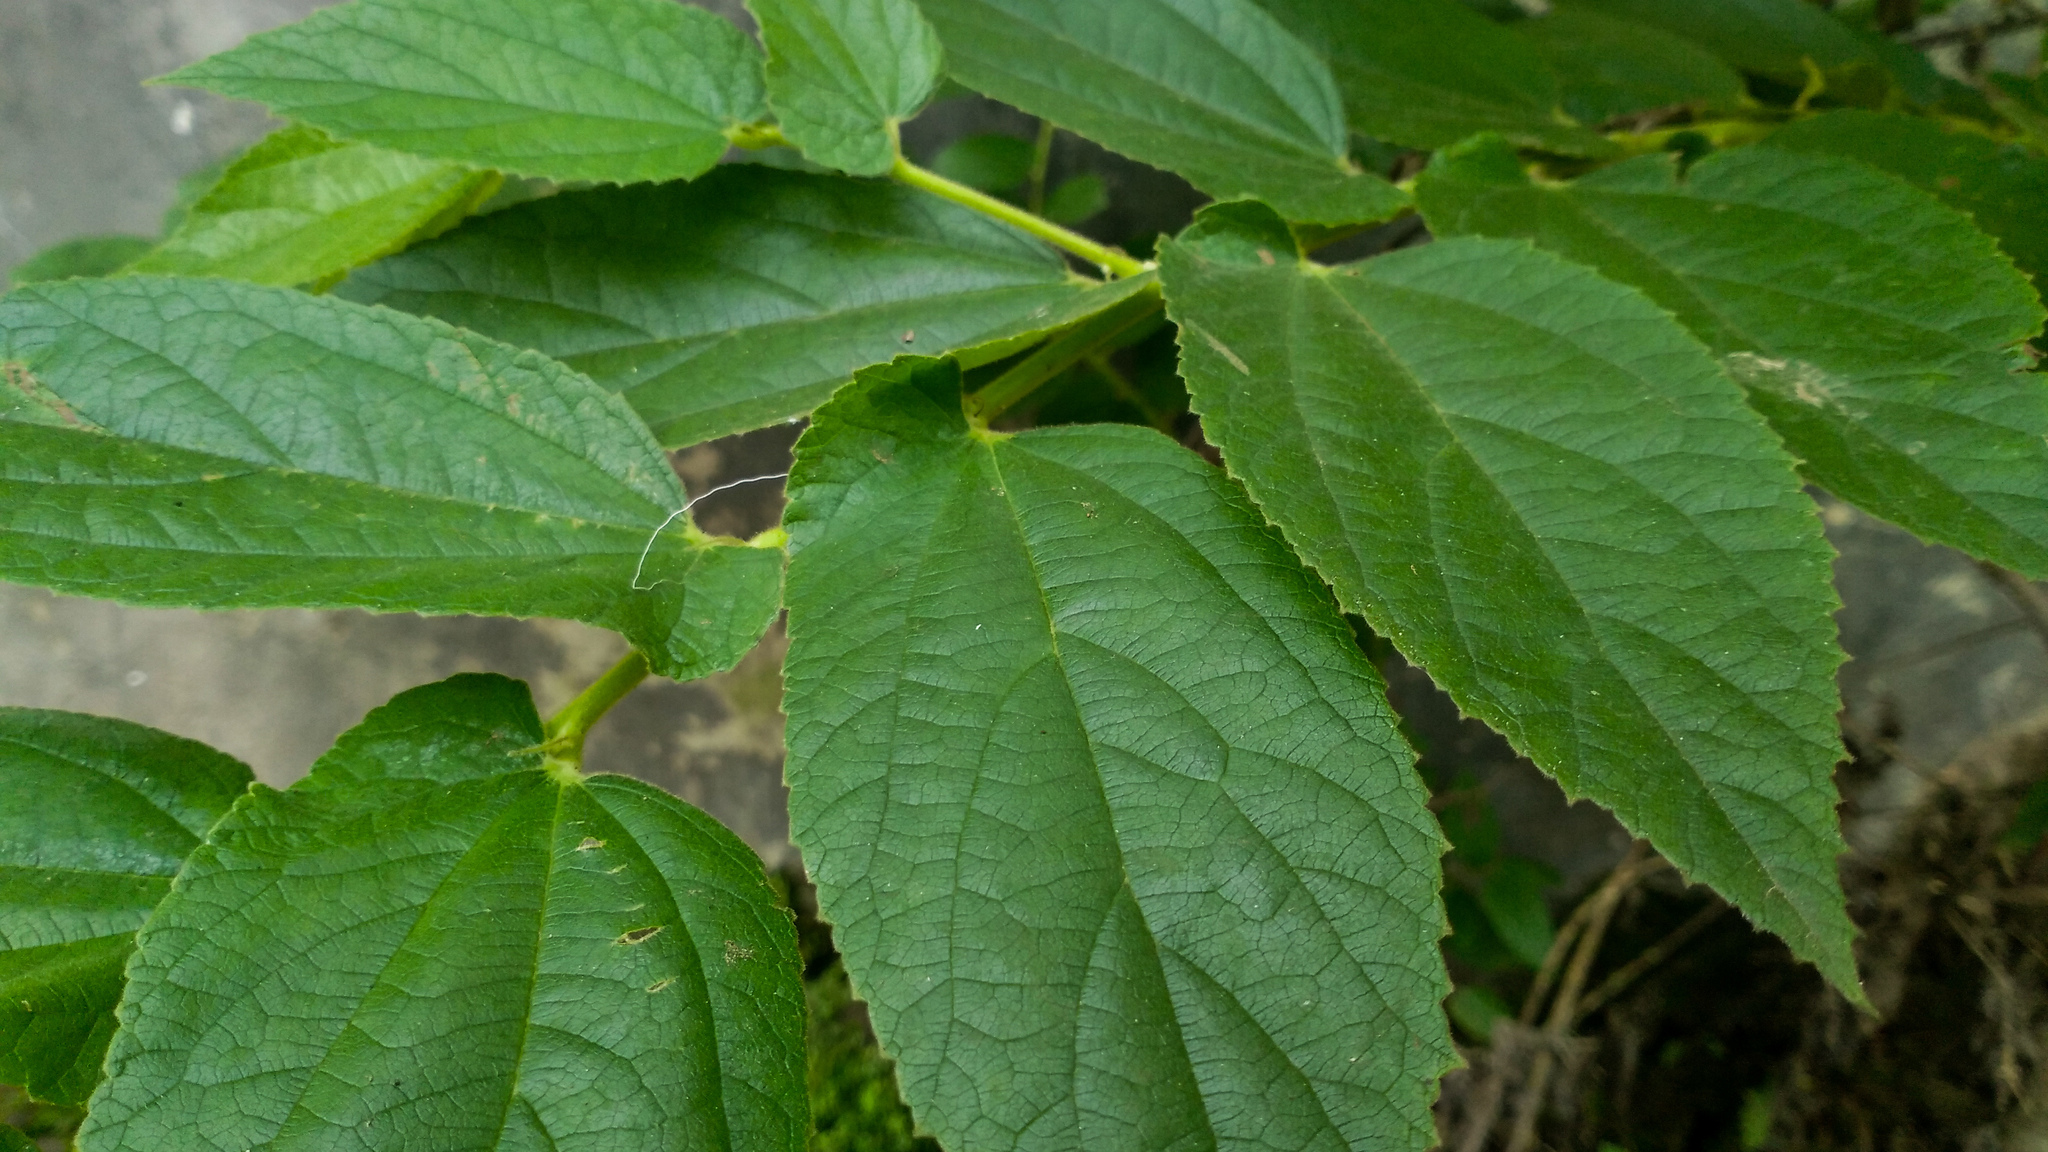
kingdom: Plantae
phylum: Tracheophyta
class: Magnoliopsida
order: Malvales
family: Muntingiaceae
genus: Muntingia
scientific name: Muntingia calabura
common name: Strawberrytree
